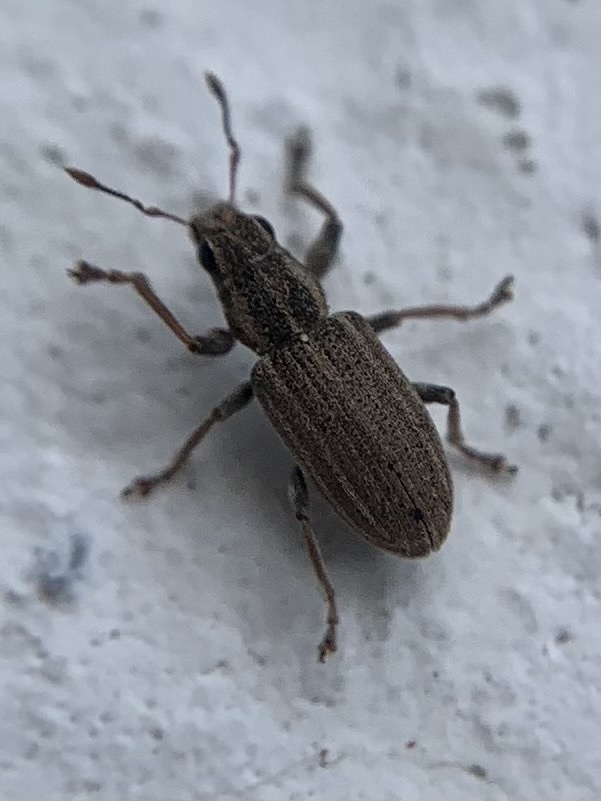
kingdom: Animalia
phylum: Arthropoda
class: Insecta
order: Coleoptera
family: Curculionidae
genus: Sitona
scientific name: Sitona lineatus
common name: Weevil
